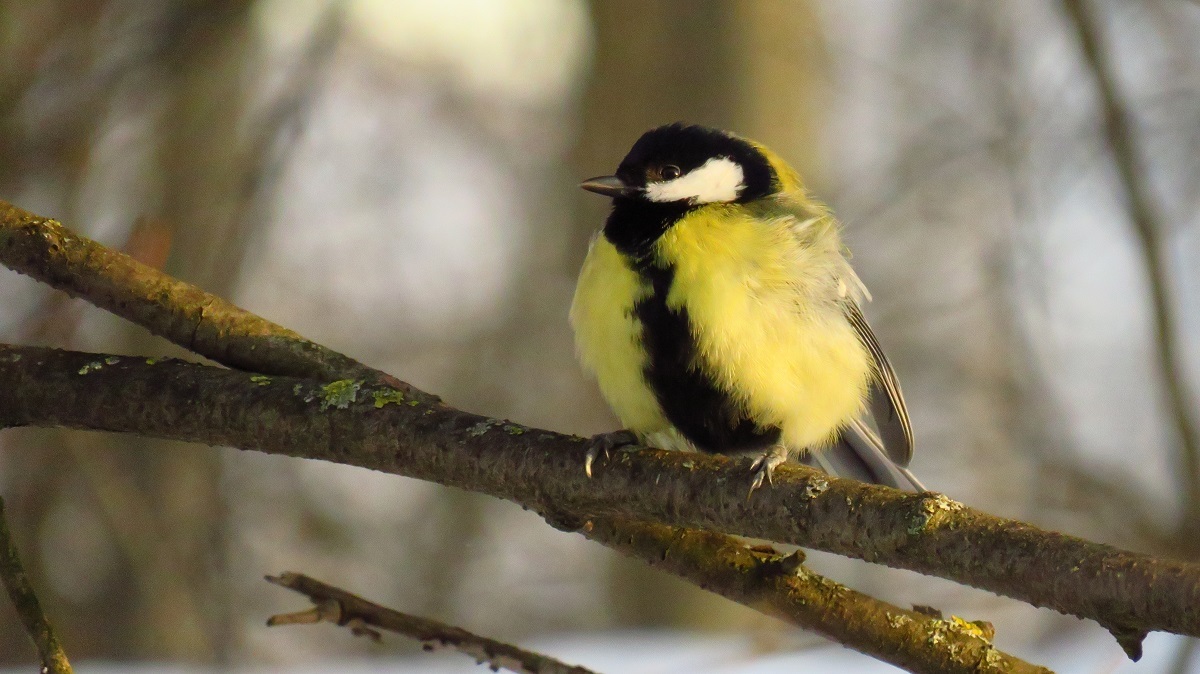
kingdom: Animalia
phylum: Chordata
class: Aves
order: Passeriformes
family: Paridae
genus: Parus
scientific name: Parus major
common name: Great tit
